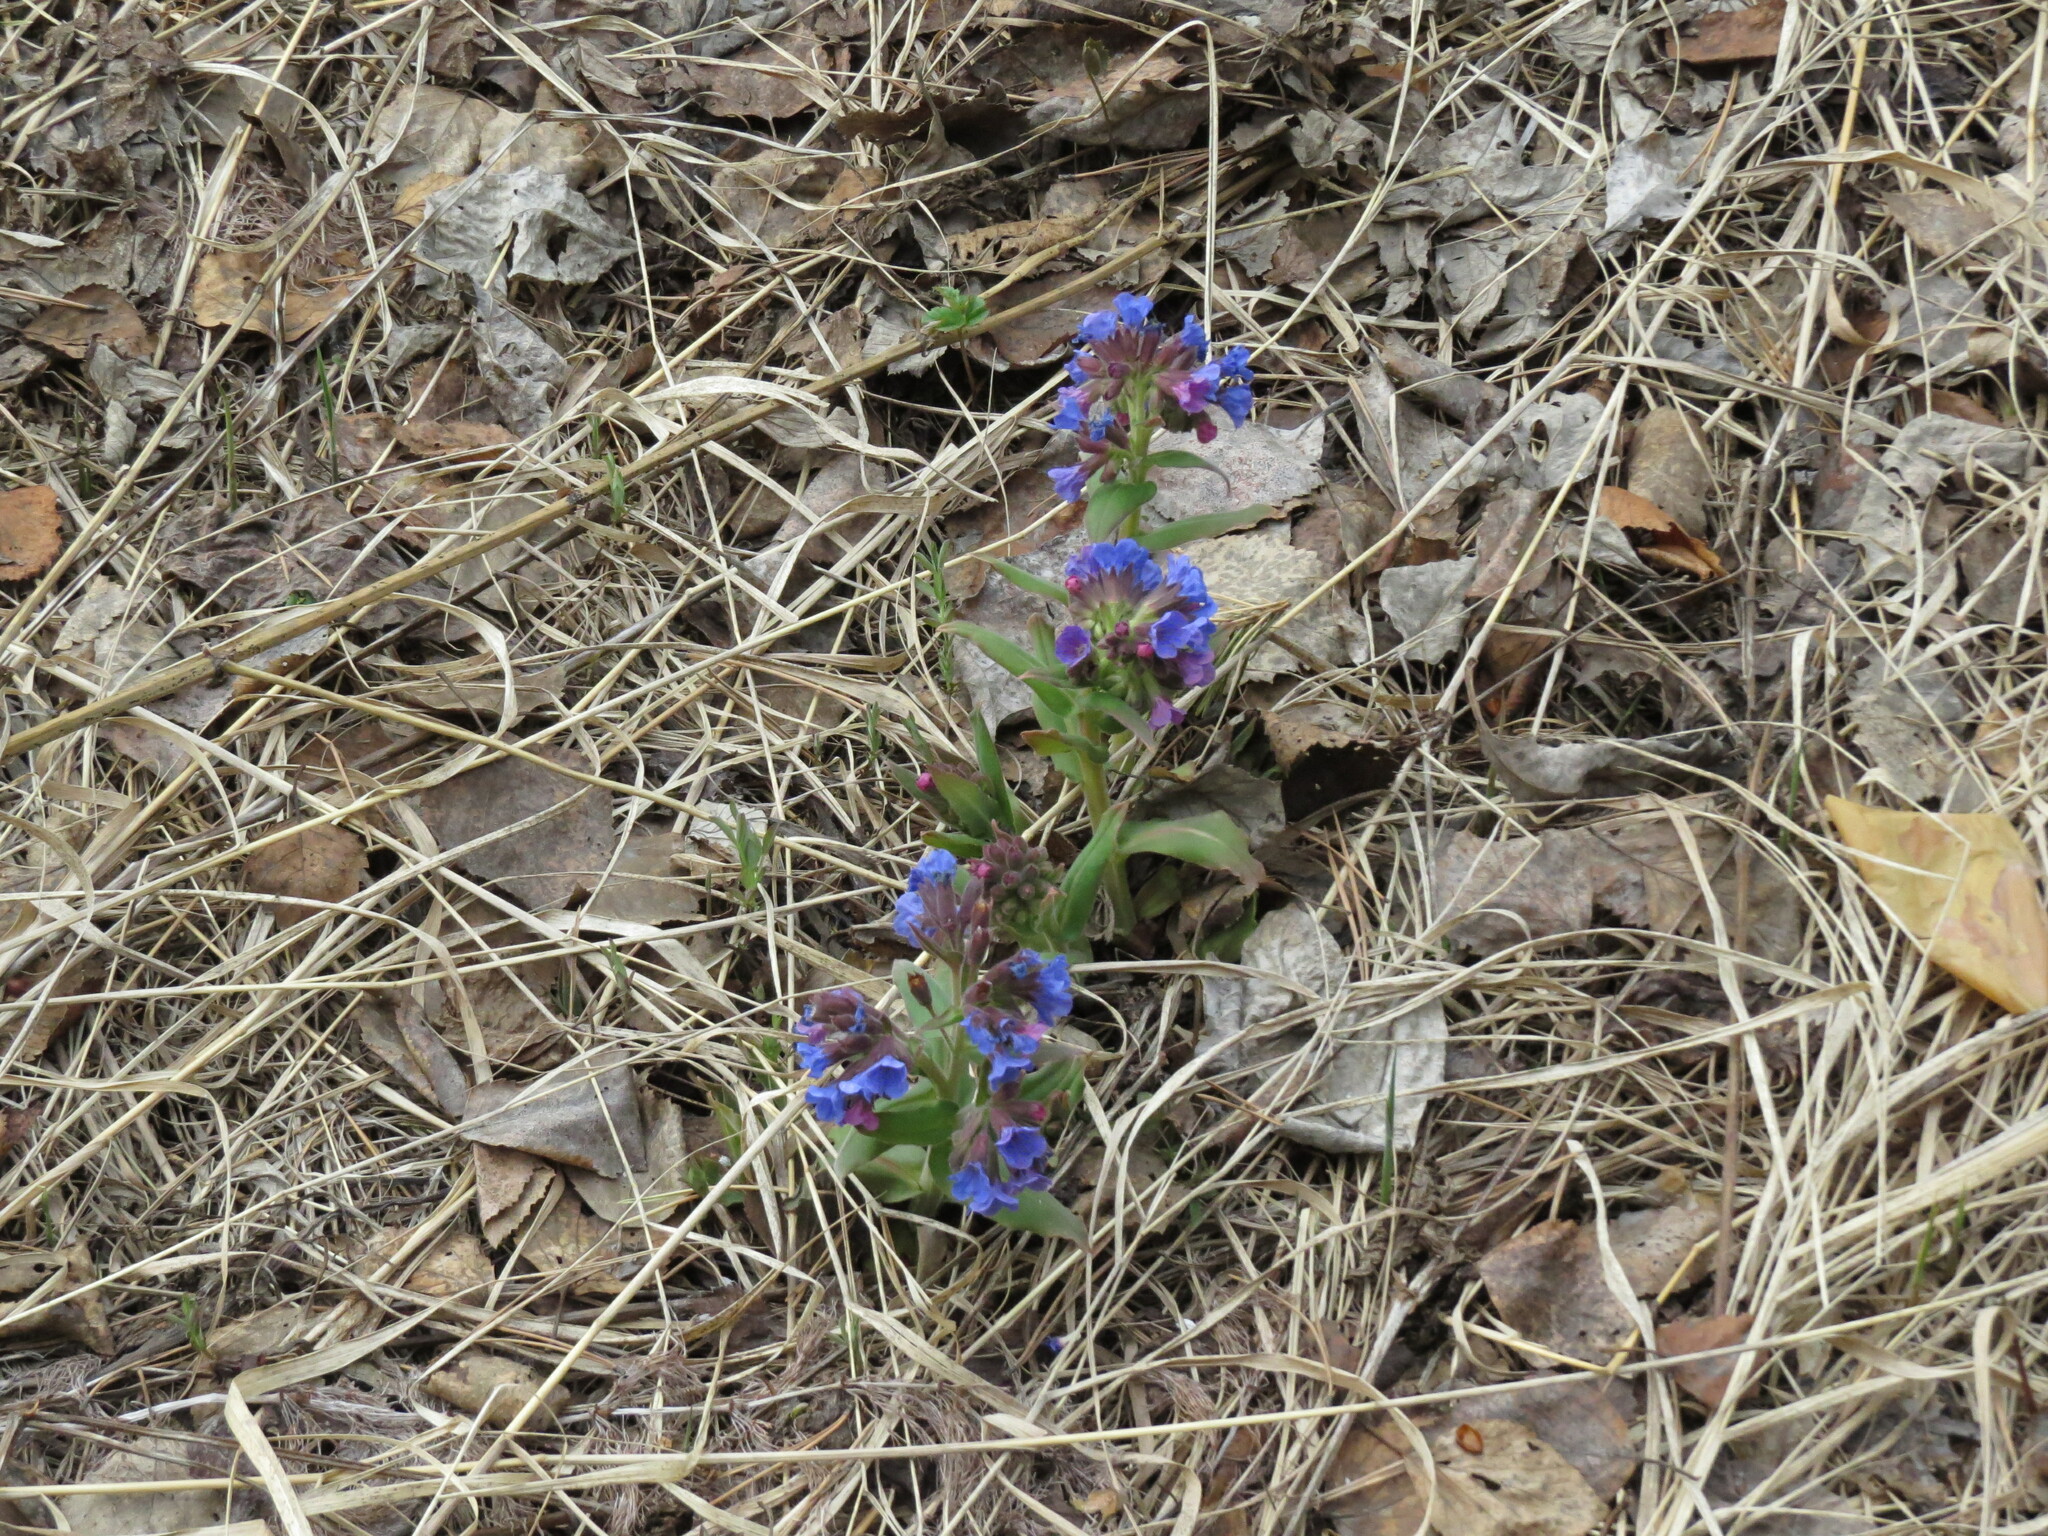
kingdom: Plantae
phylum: Tracheophyta
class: Magnoliopsida
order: Boraginales
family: Boraginaceae
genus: Pulmonaria
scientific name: Pulmonaria mollis
